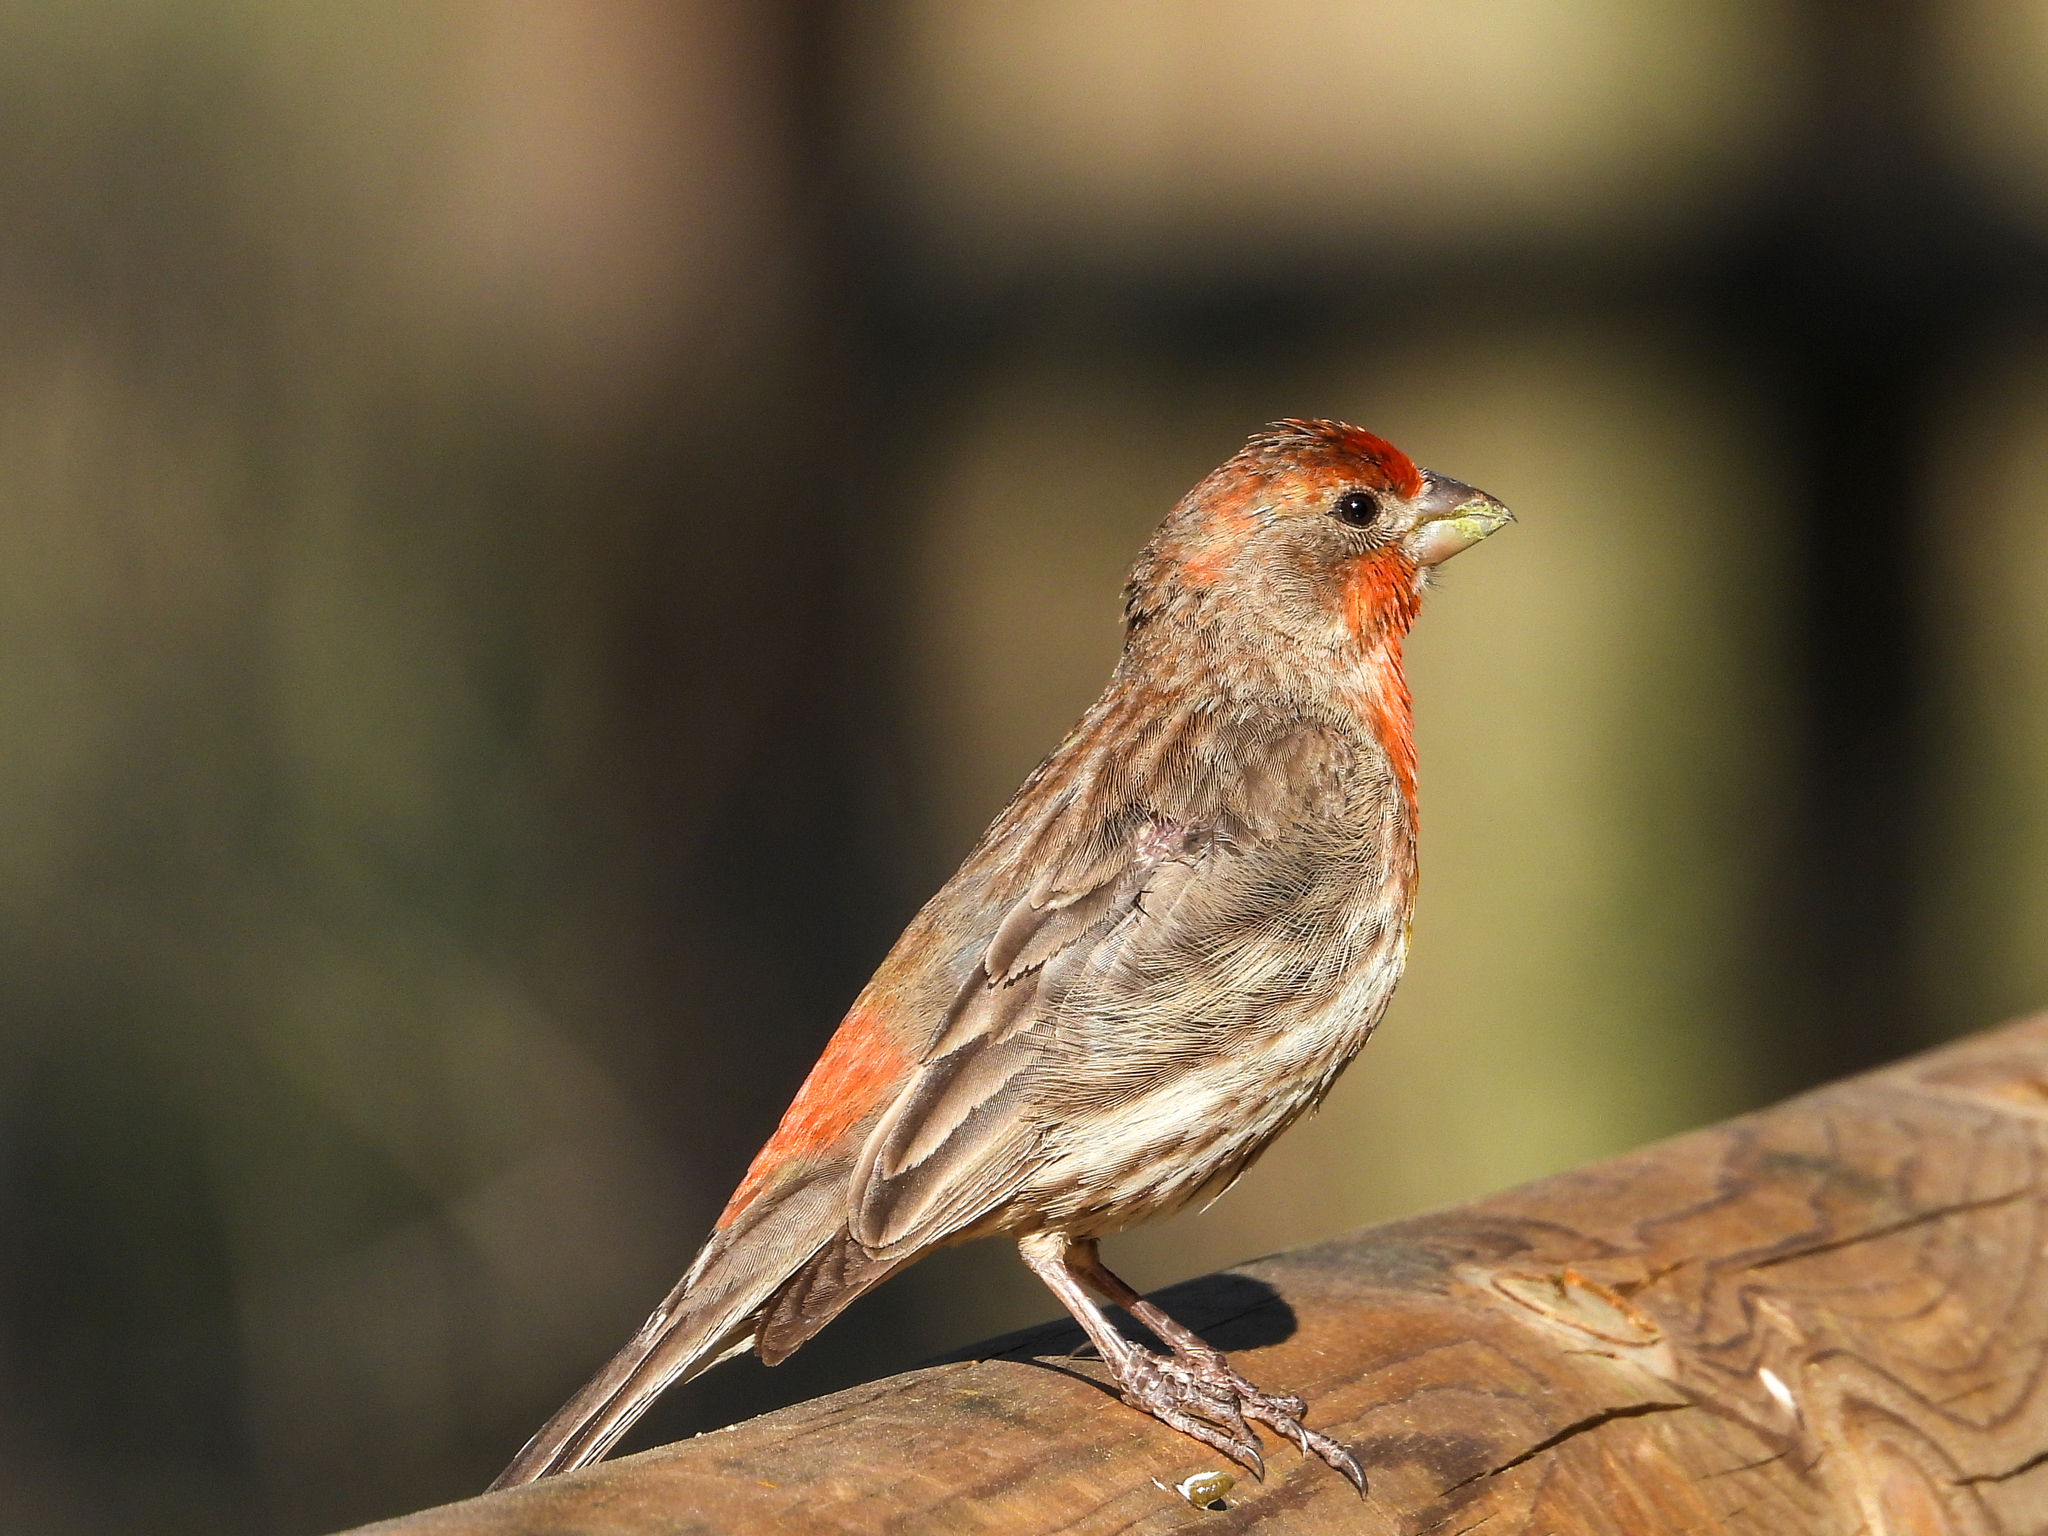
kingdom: Animalia
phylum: Chordata
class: Aves
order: Passeriformes
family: Fringillidae
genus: Haemorhous
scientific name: Haemorhous mexicanus
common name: House finch
